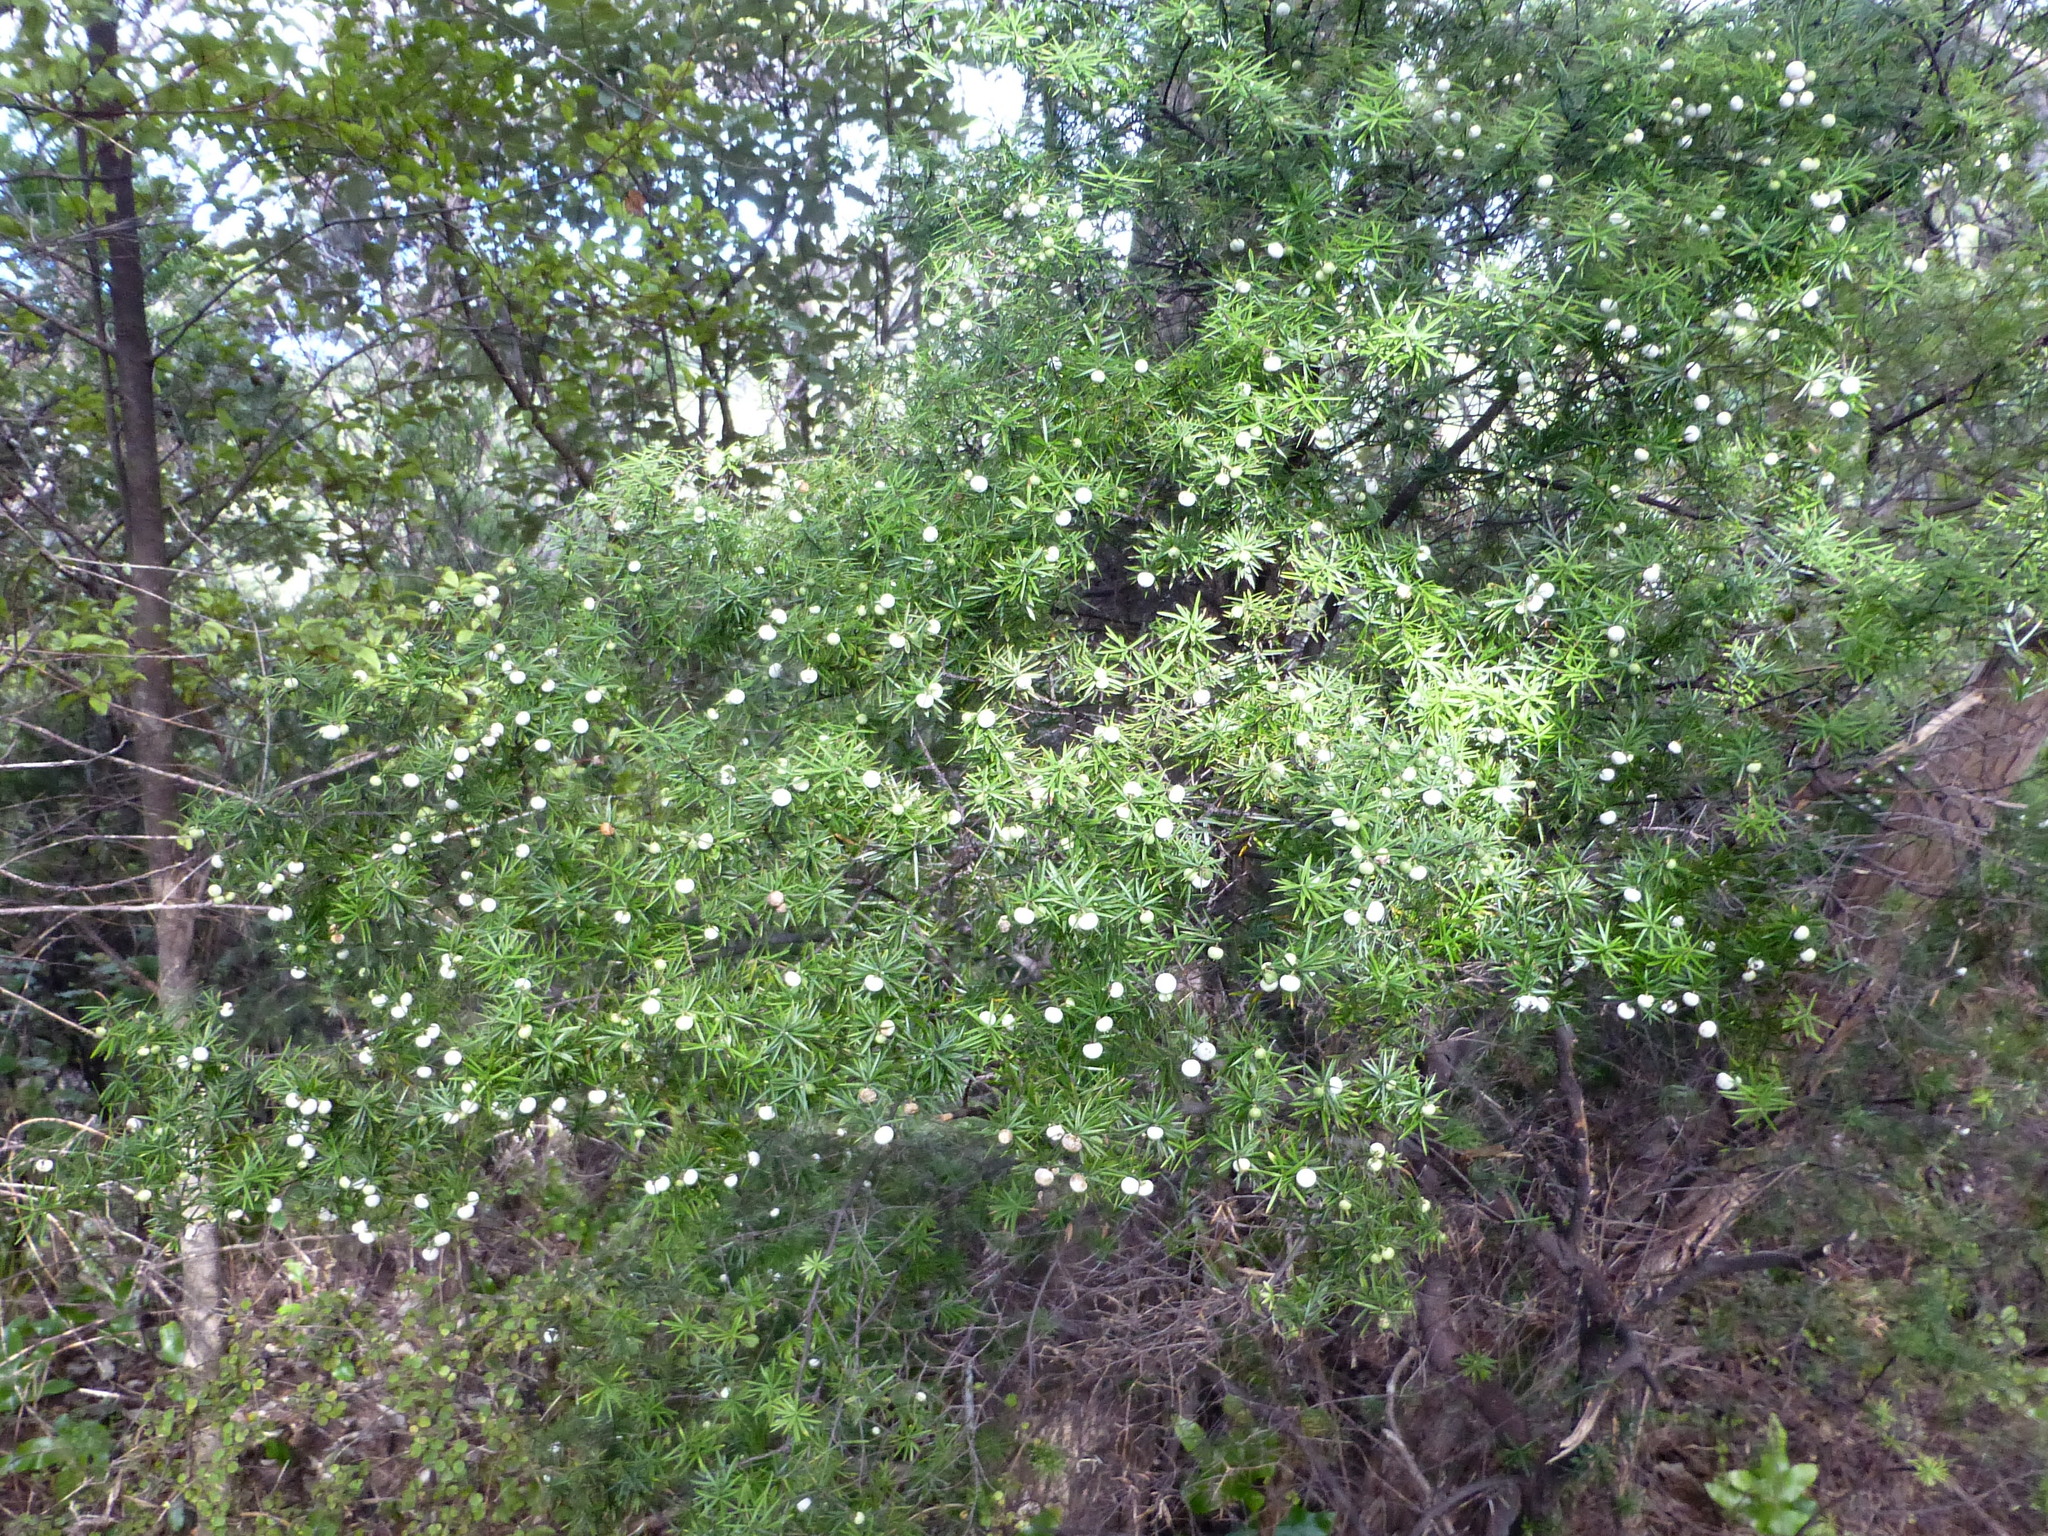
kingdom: Plantae
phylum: Tracheophyta
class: Magnoliopsida
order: Ericales
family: Ericaceae
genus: Leptecophylla
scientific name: Leptecophylla juniperina
